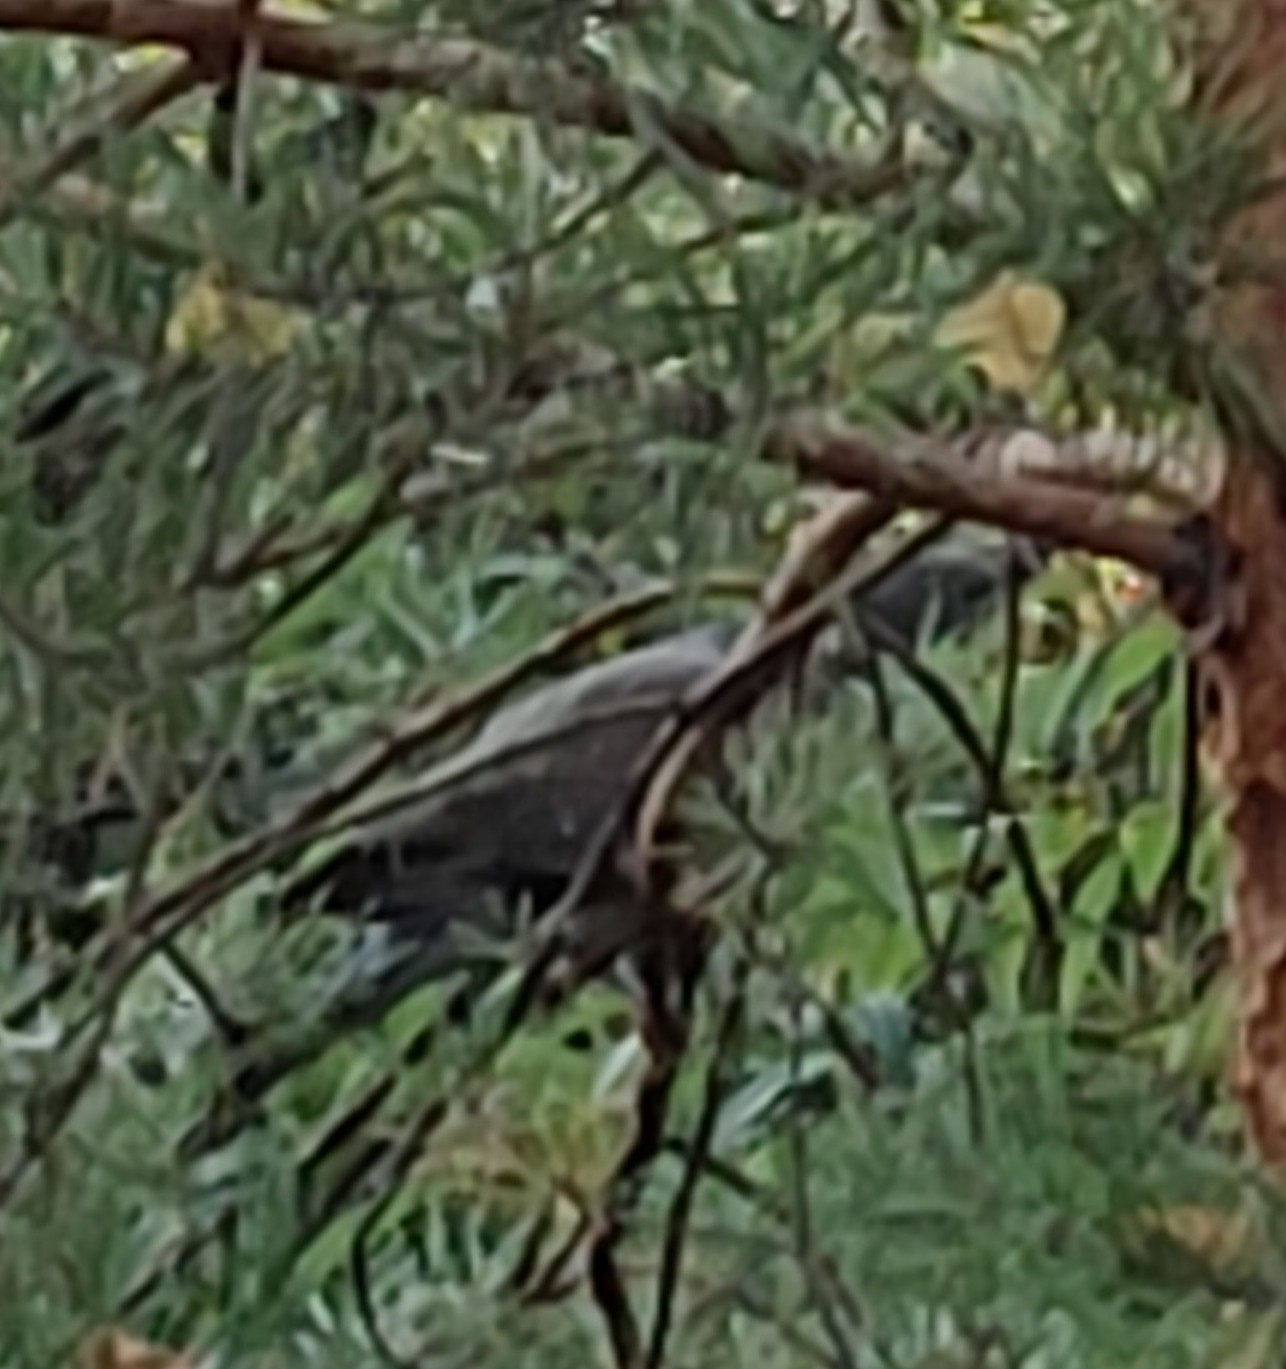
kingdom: Animalia
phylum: Chordata
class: Aves
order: Columbiformes
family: Columbidae
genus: Columba
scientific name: Columba palumbus
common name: Common wood pigeon
